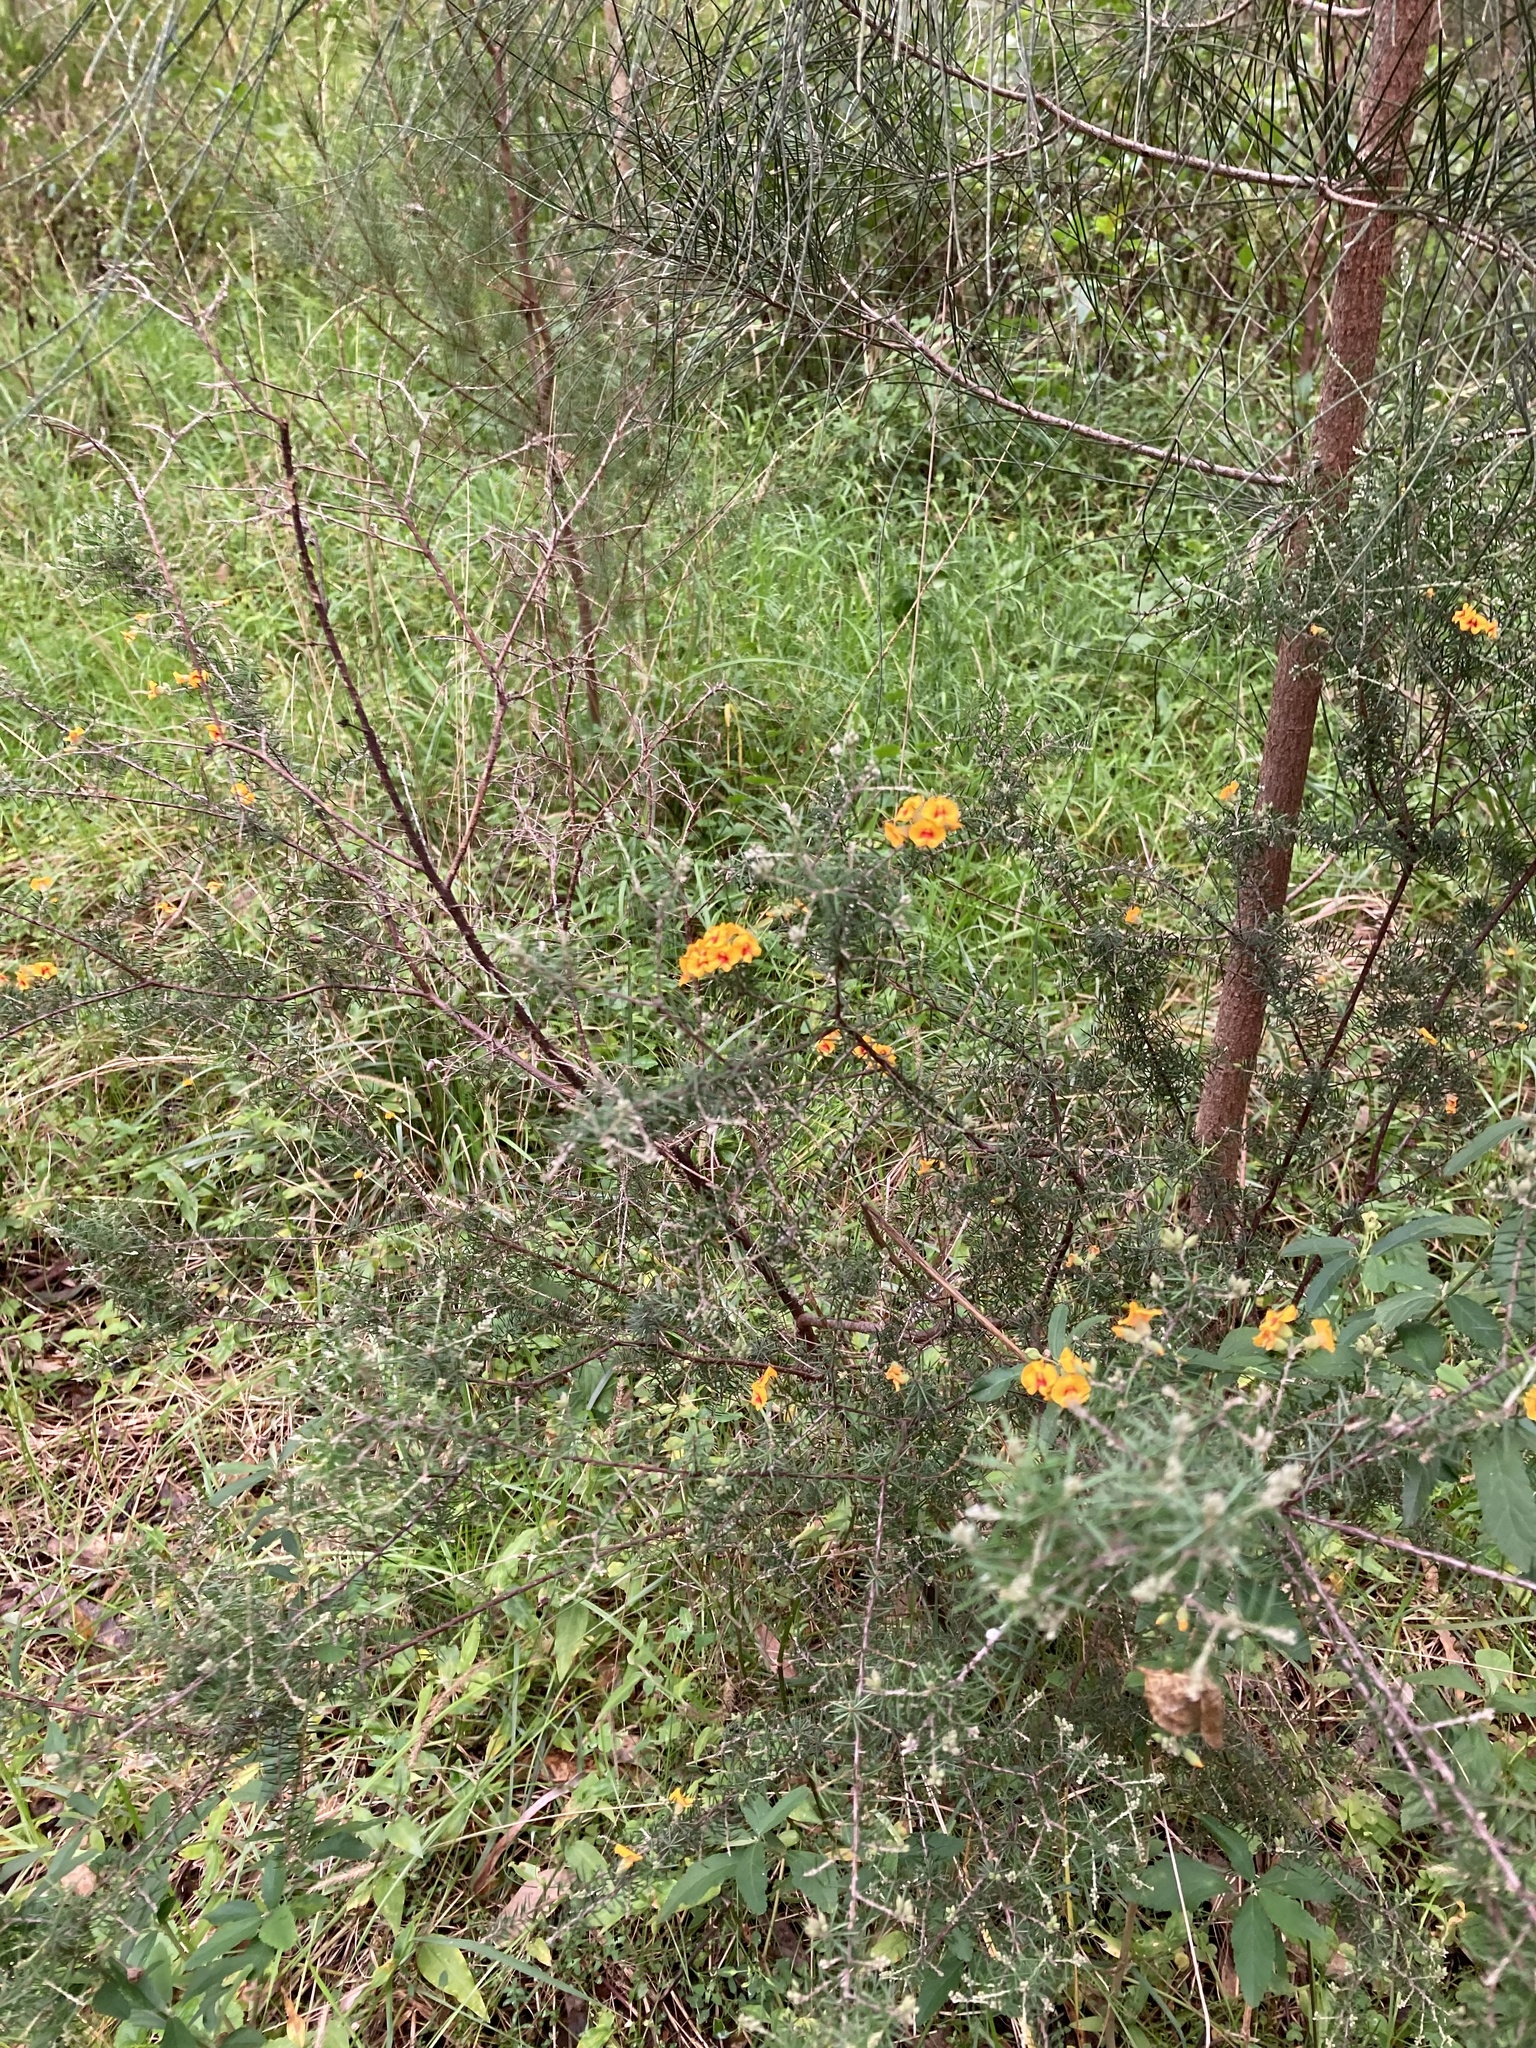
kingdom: Plantae
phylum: Tracheophyta
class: Magnoliopsida
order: Fabales
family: Fabaceae
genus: Dillwynia
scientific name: Dillwynia sieberi
